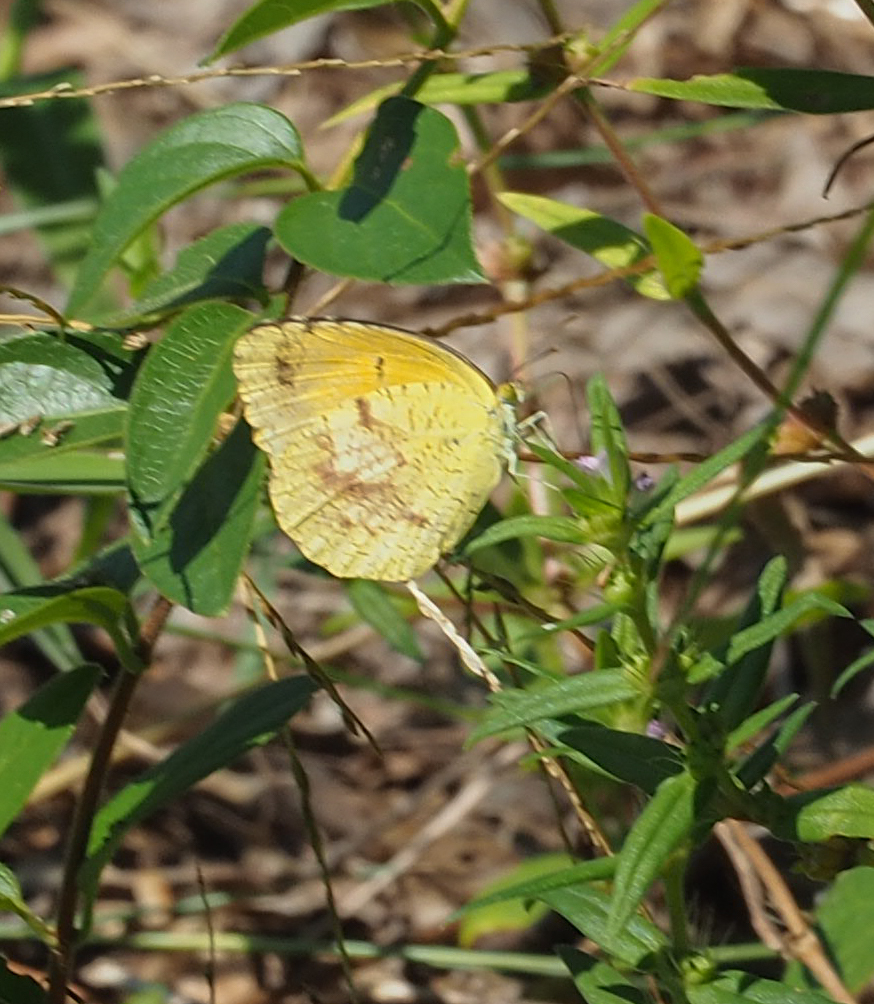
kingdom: Animalia
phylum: Arthropoda
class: Insecta
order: Lepidoptera
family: Pieridae
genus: Abaeis
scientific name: Abaeis nicippe
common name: Sleepy orange
